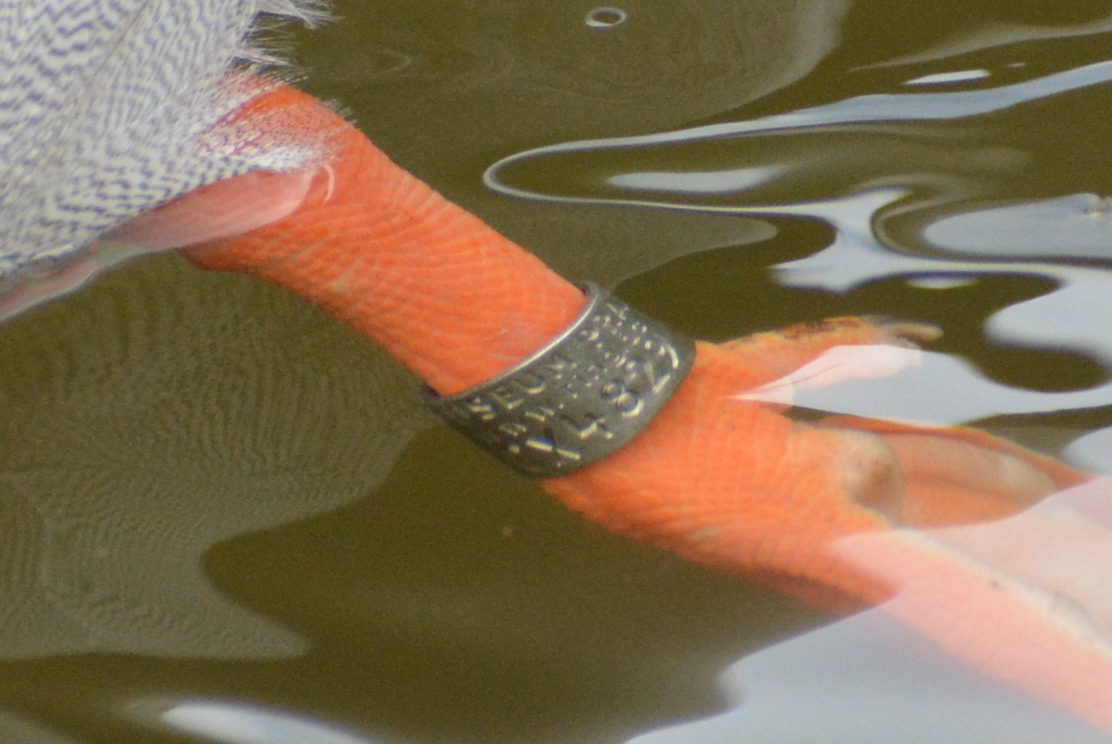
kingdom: Animalia
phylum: Chordata
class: Aves
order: Anseriformes
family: Anatidae
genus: Anas
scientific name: Anas platyrhynchos
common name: Mallard
